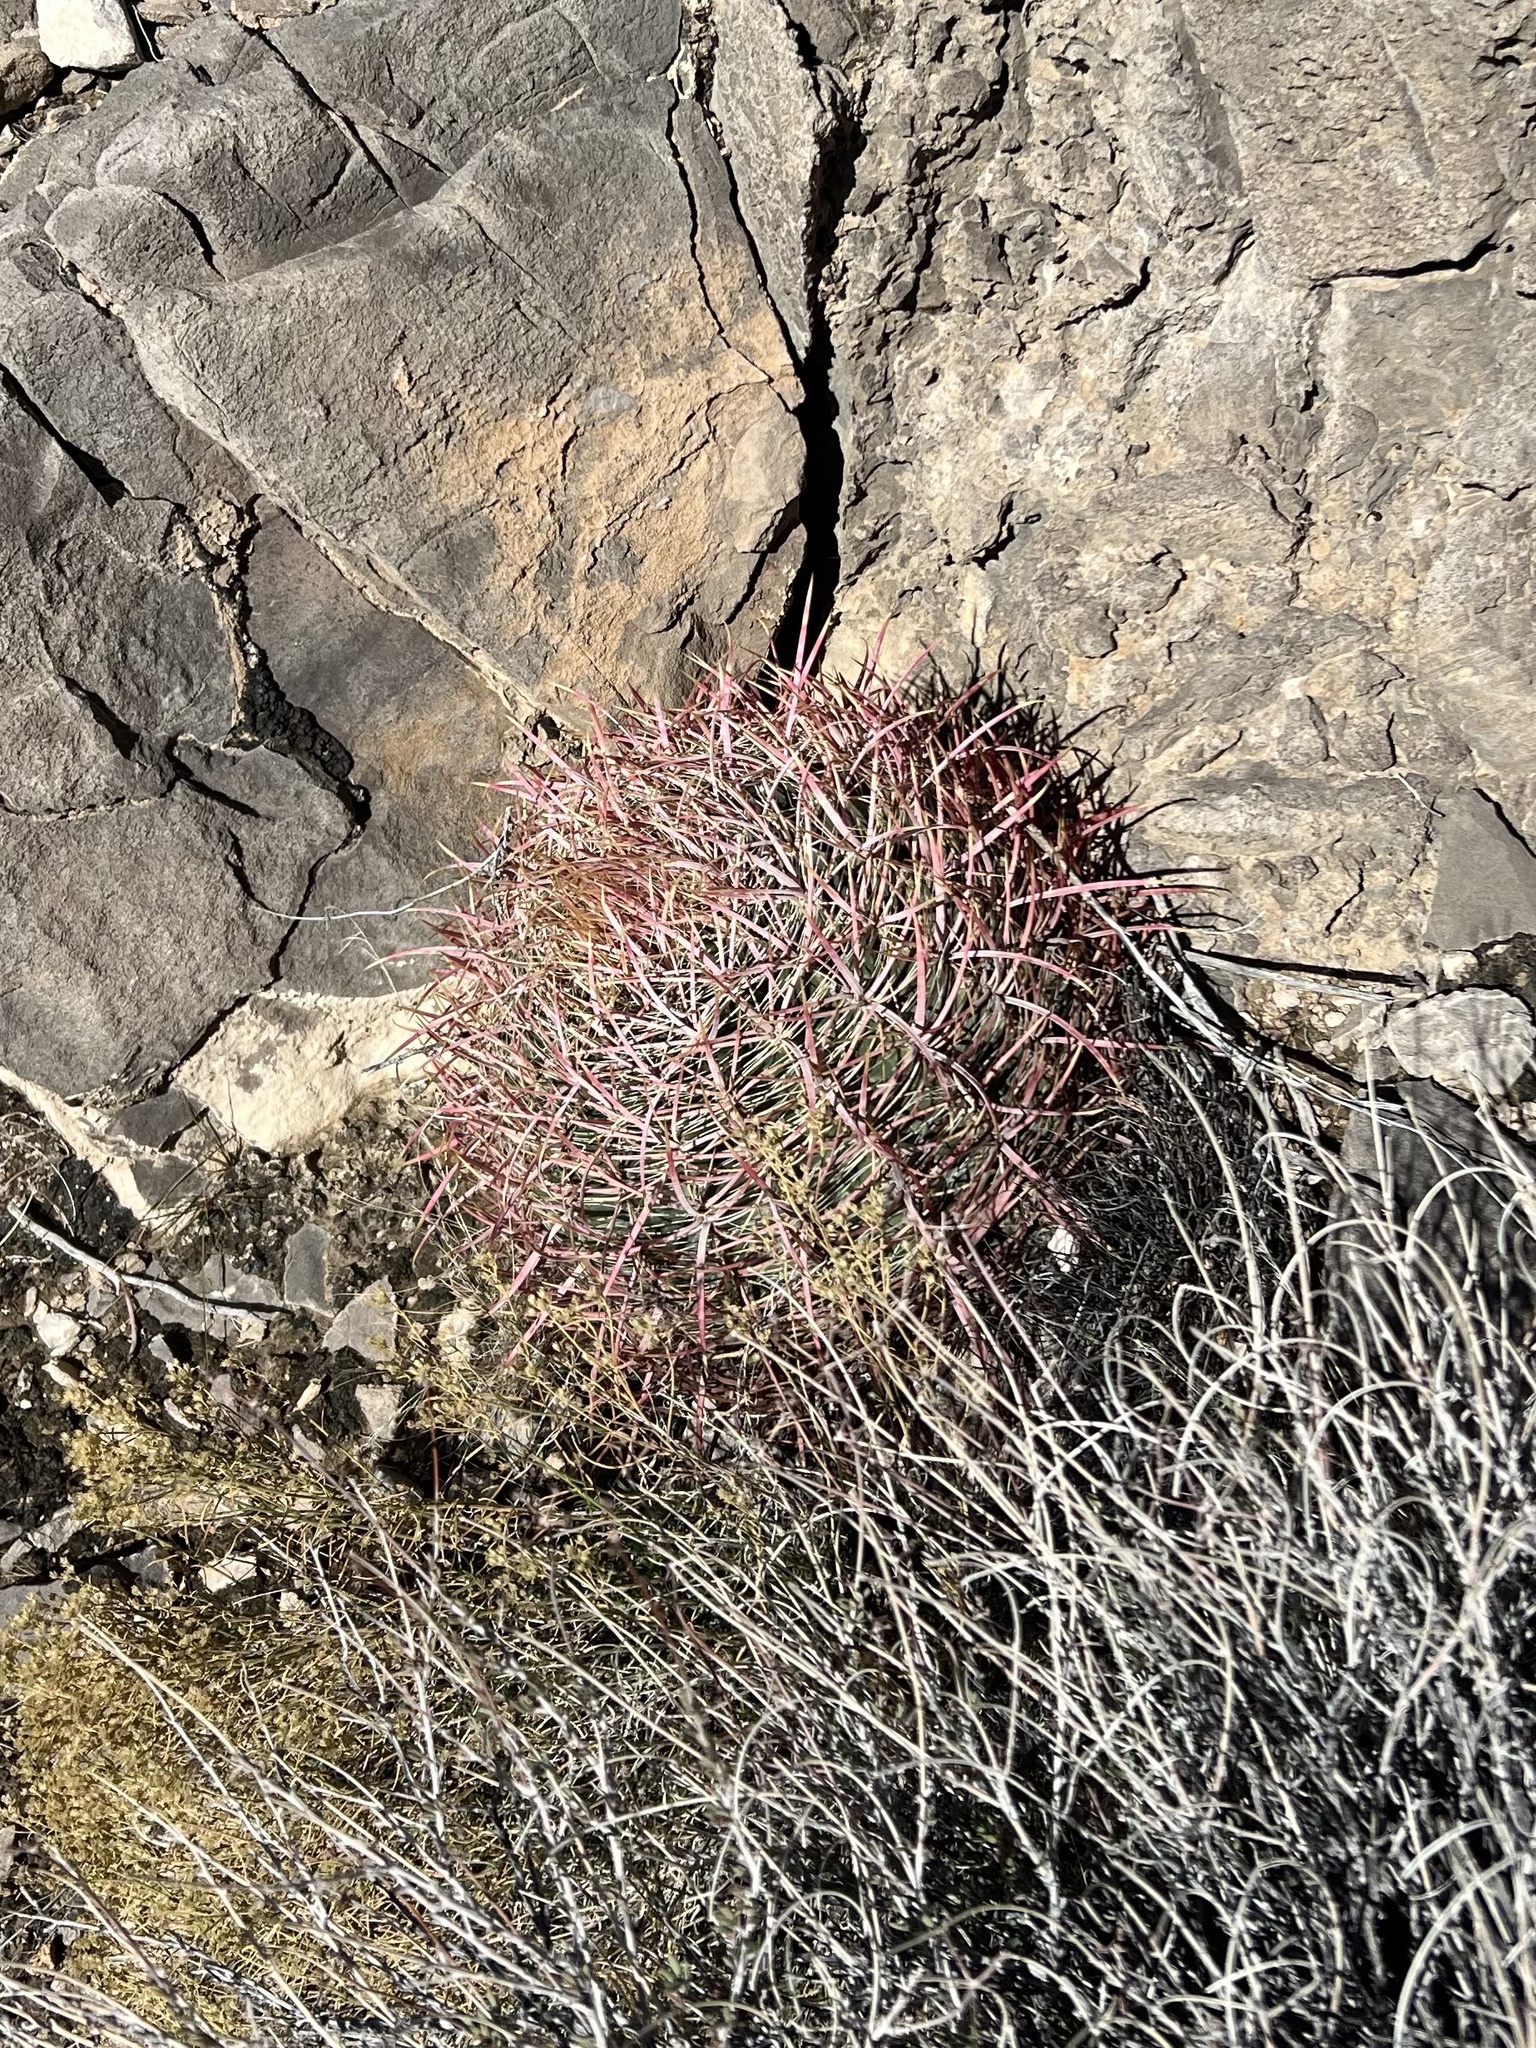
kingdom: Plantae
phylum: Tracheophyta
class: Magnoliopsida
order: Caryophyllales
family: Cactaceae
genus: Ferocactus
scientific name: Ferocactus cylindraceus
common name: California barrel cactus
